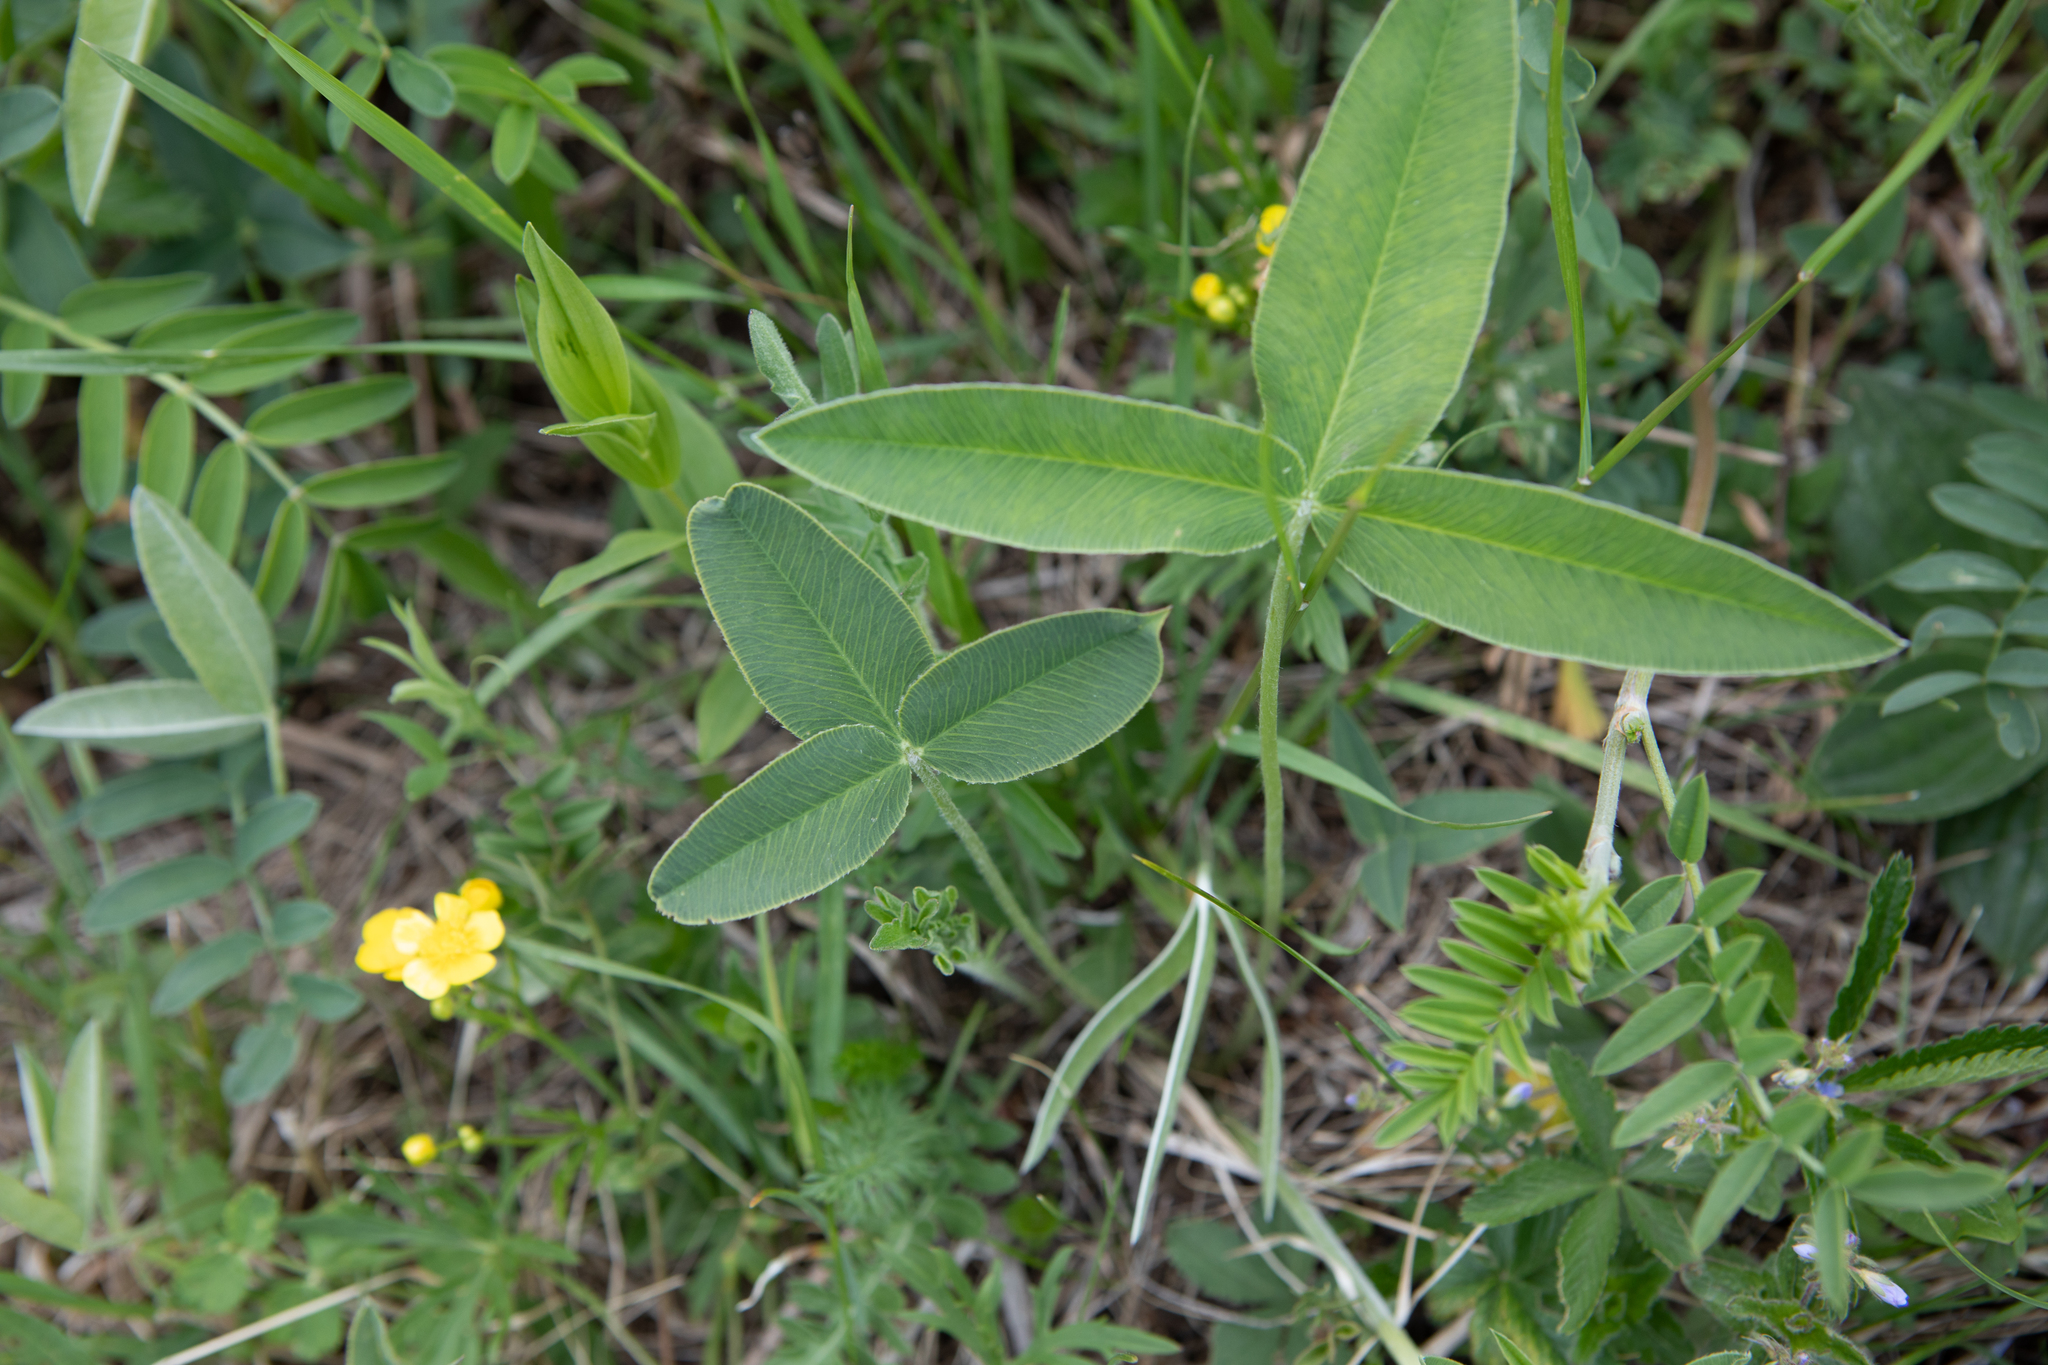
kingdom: Plantae
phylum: Tracheophyta
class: Magnoliopsida
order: Fabales
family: Fabaceae
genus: Trifolium
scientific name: Trifolium montanum
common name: Mountain clover
